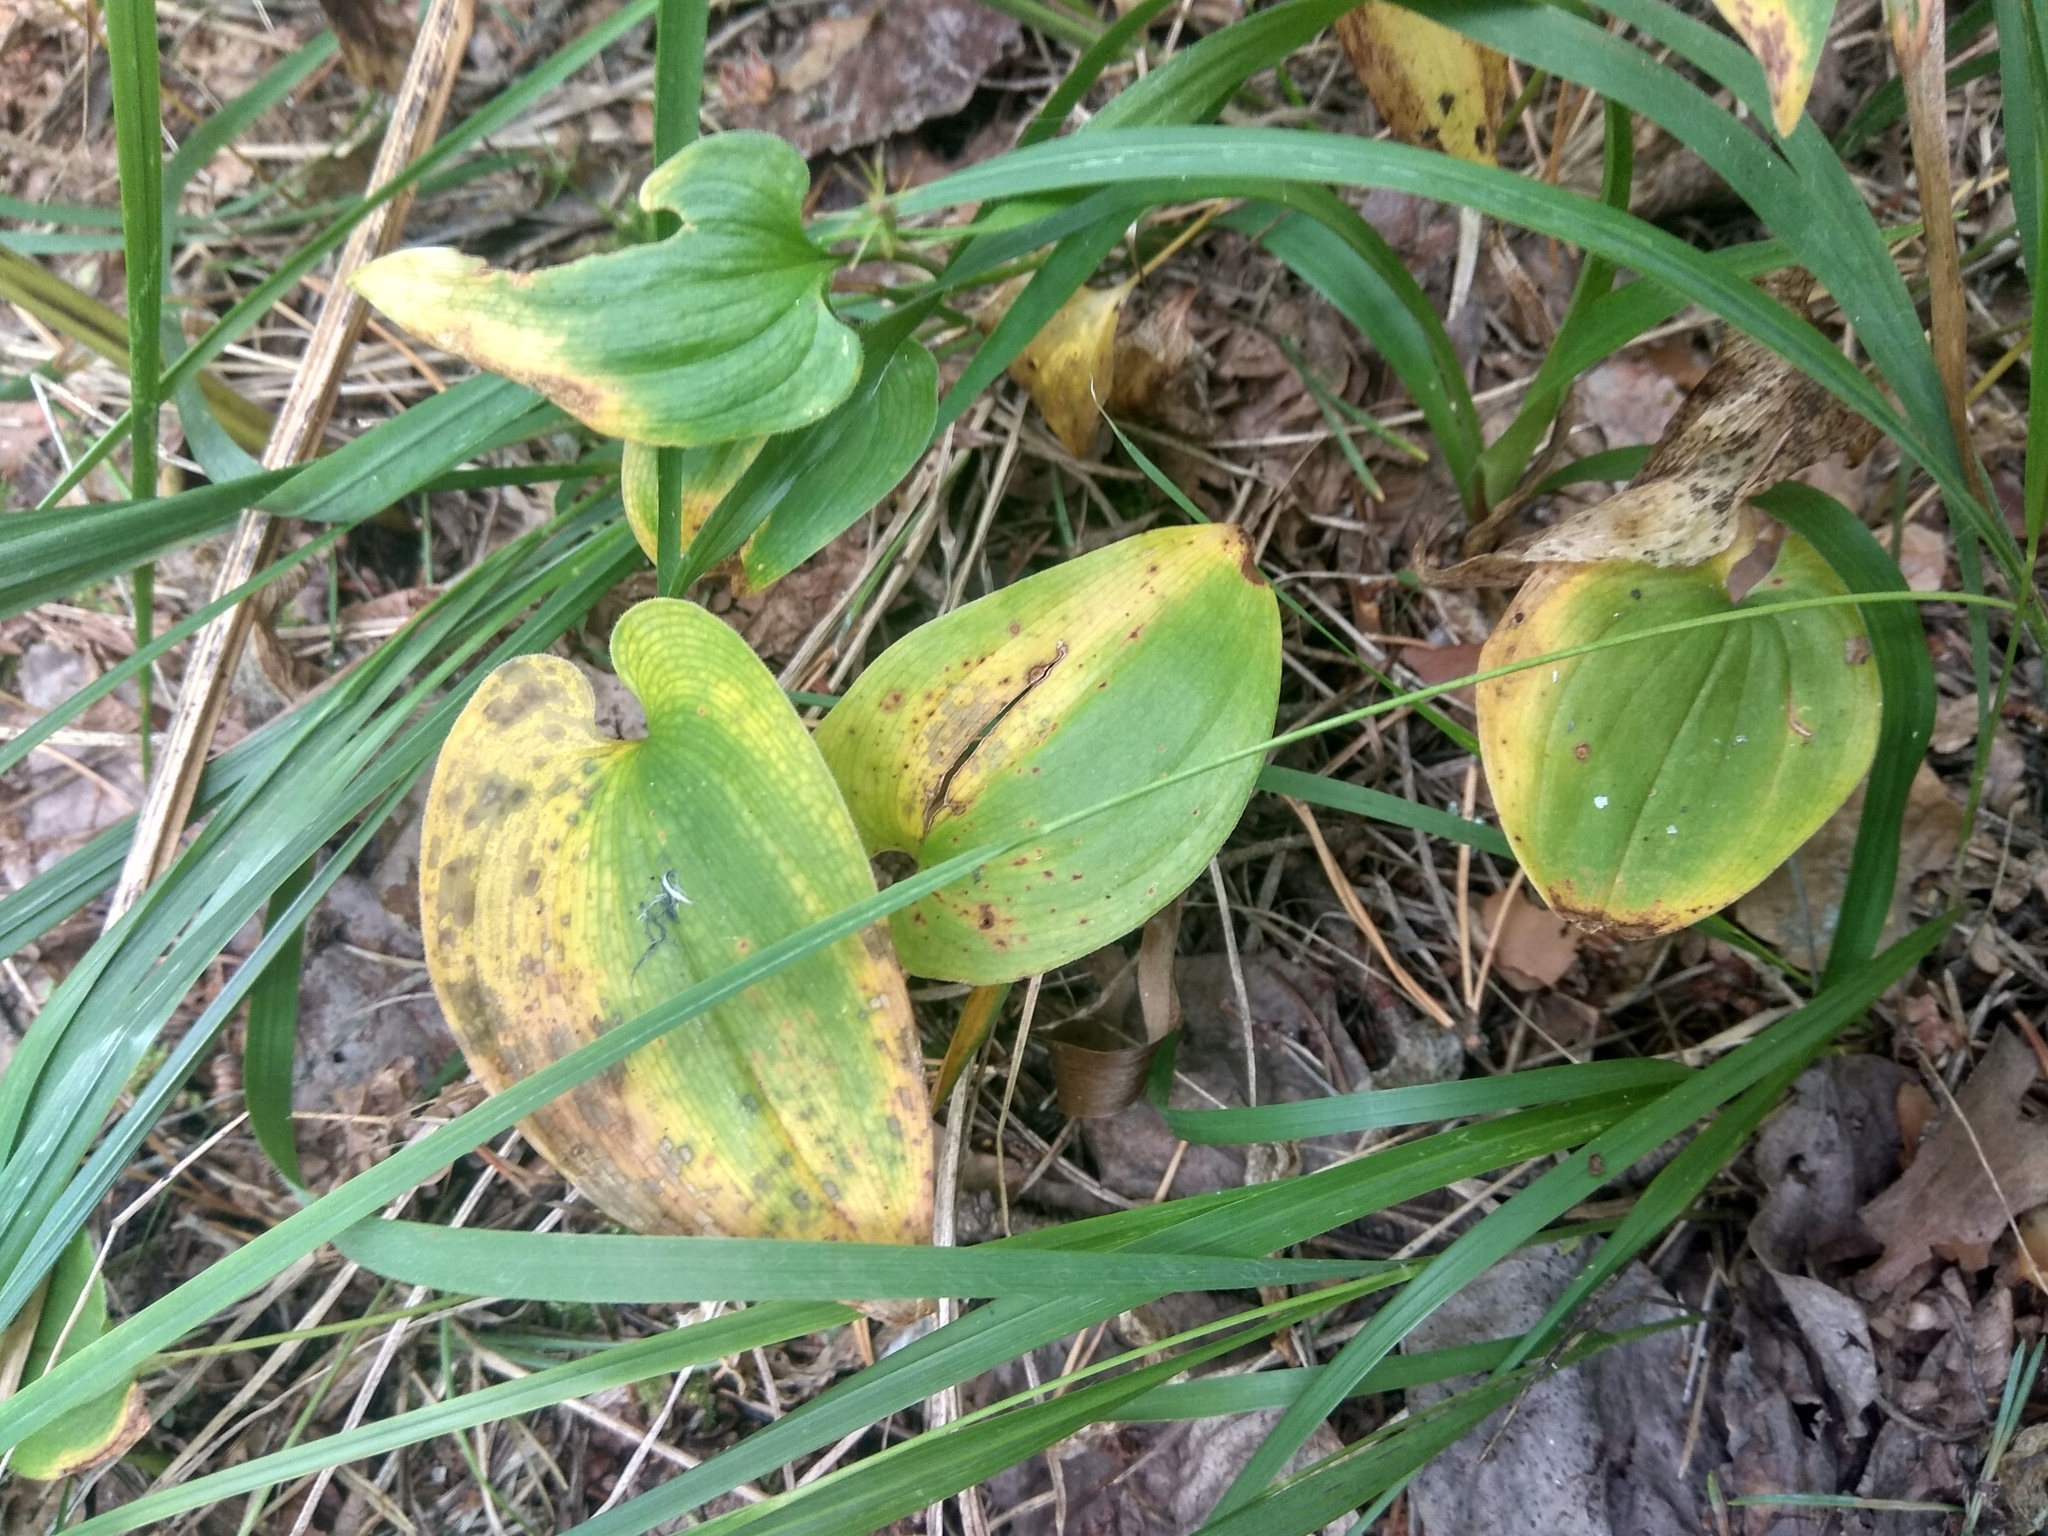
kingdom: Plantae
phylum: Tracheophyta
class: Liliopsida
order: Asparagales
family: Asparagaceae
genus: Maianthemum
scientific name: Maianthemum bifolium
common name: May lily
